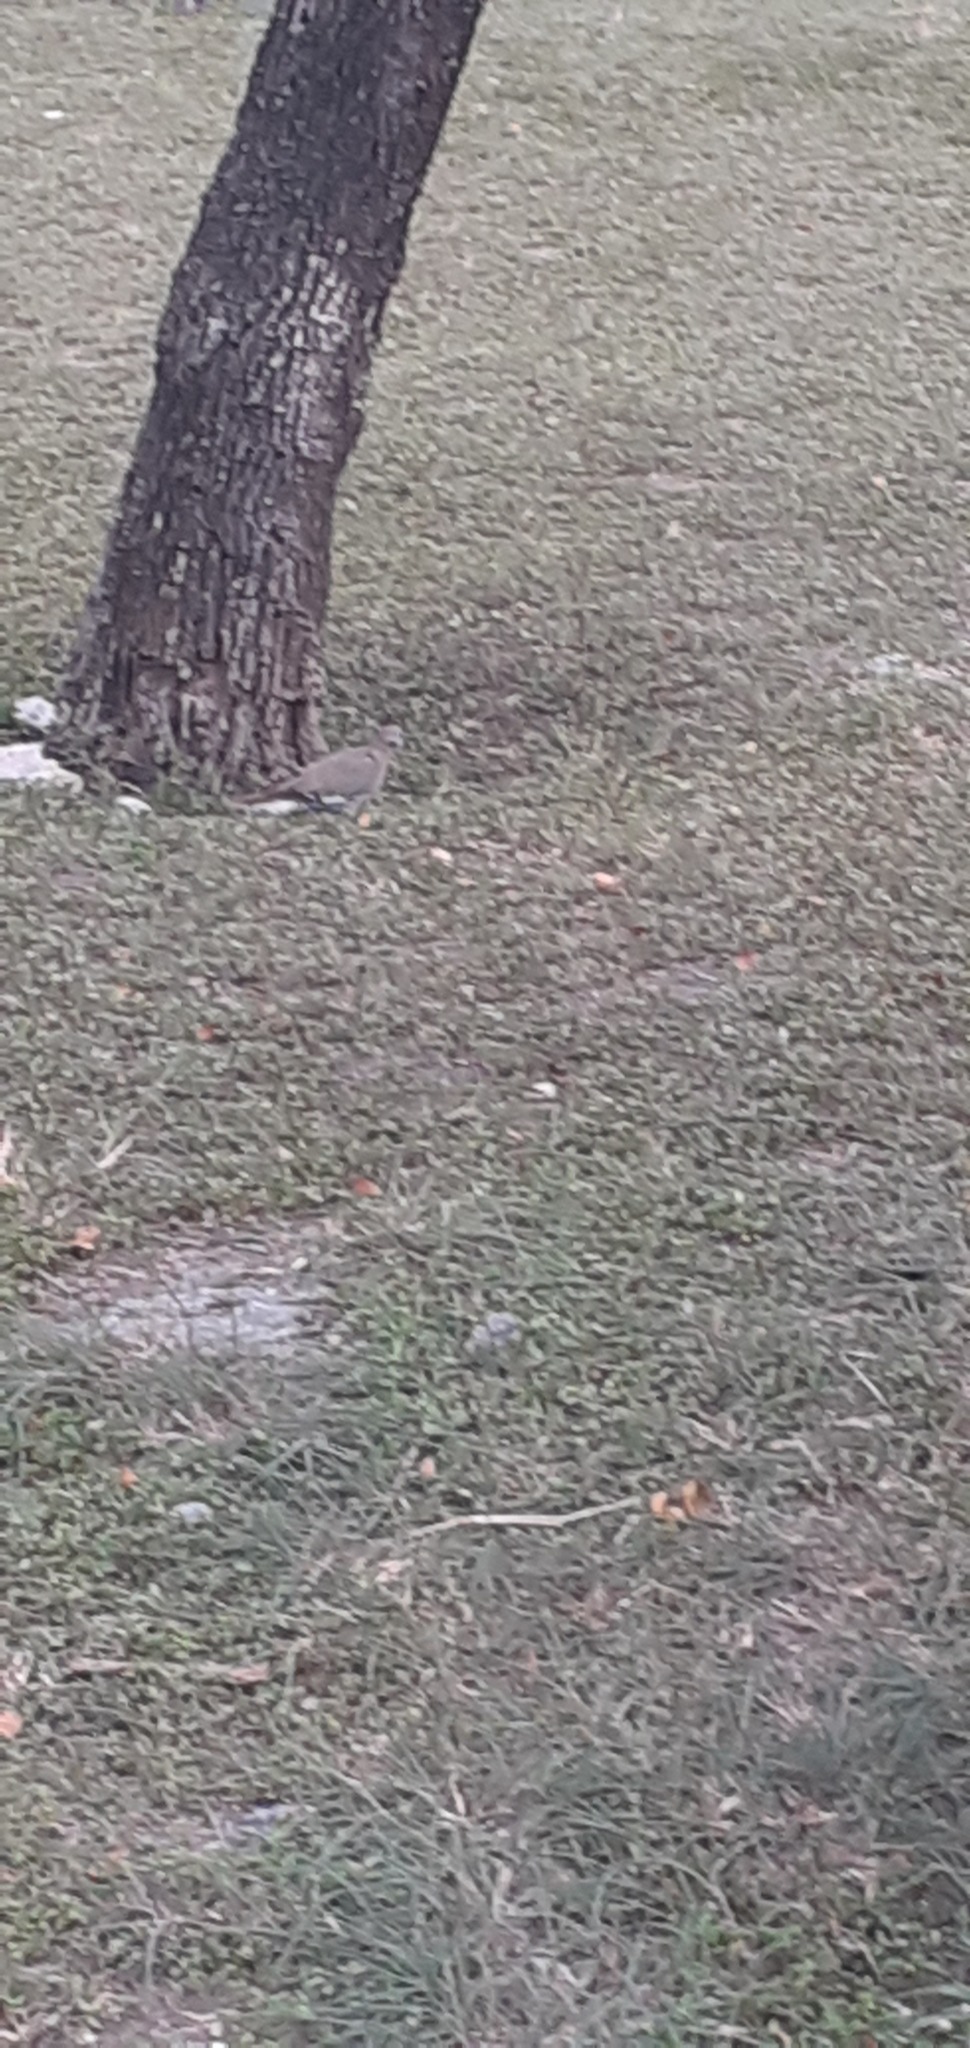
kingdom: Animalia
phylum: Chordata
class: Aves
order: Columbiformes
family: Columbidae
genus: Zenaida
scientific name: Zenaida asiatica
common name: White-winged dove
